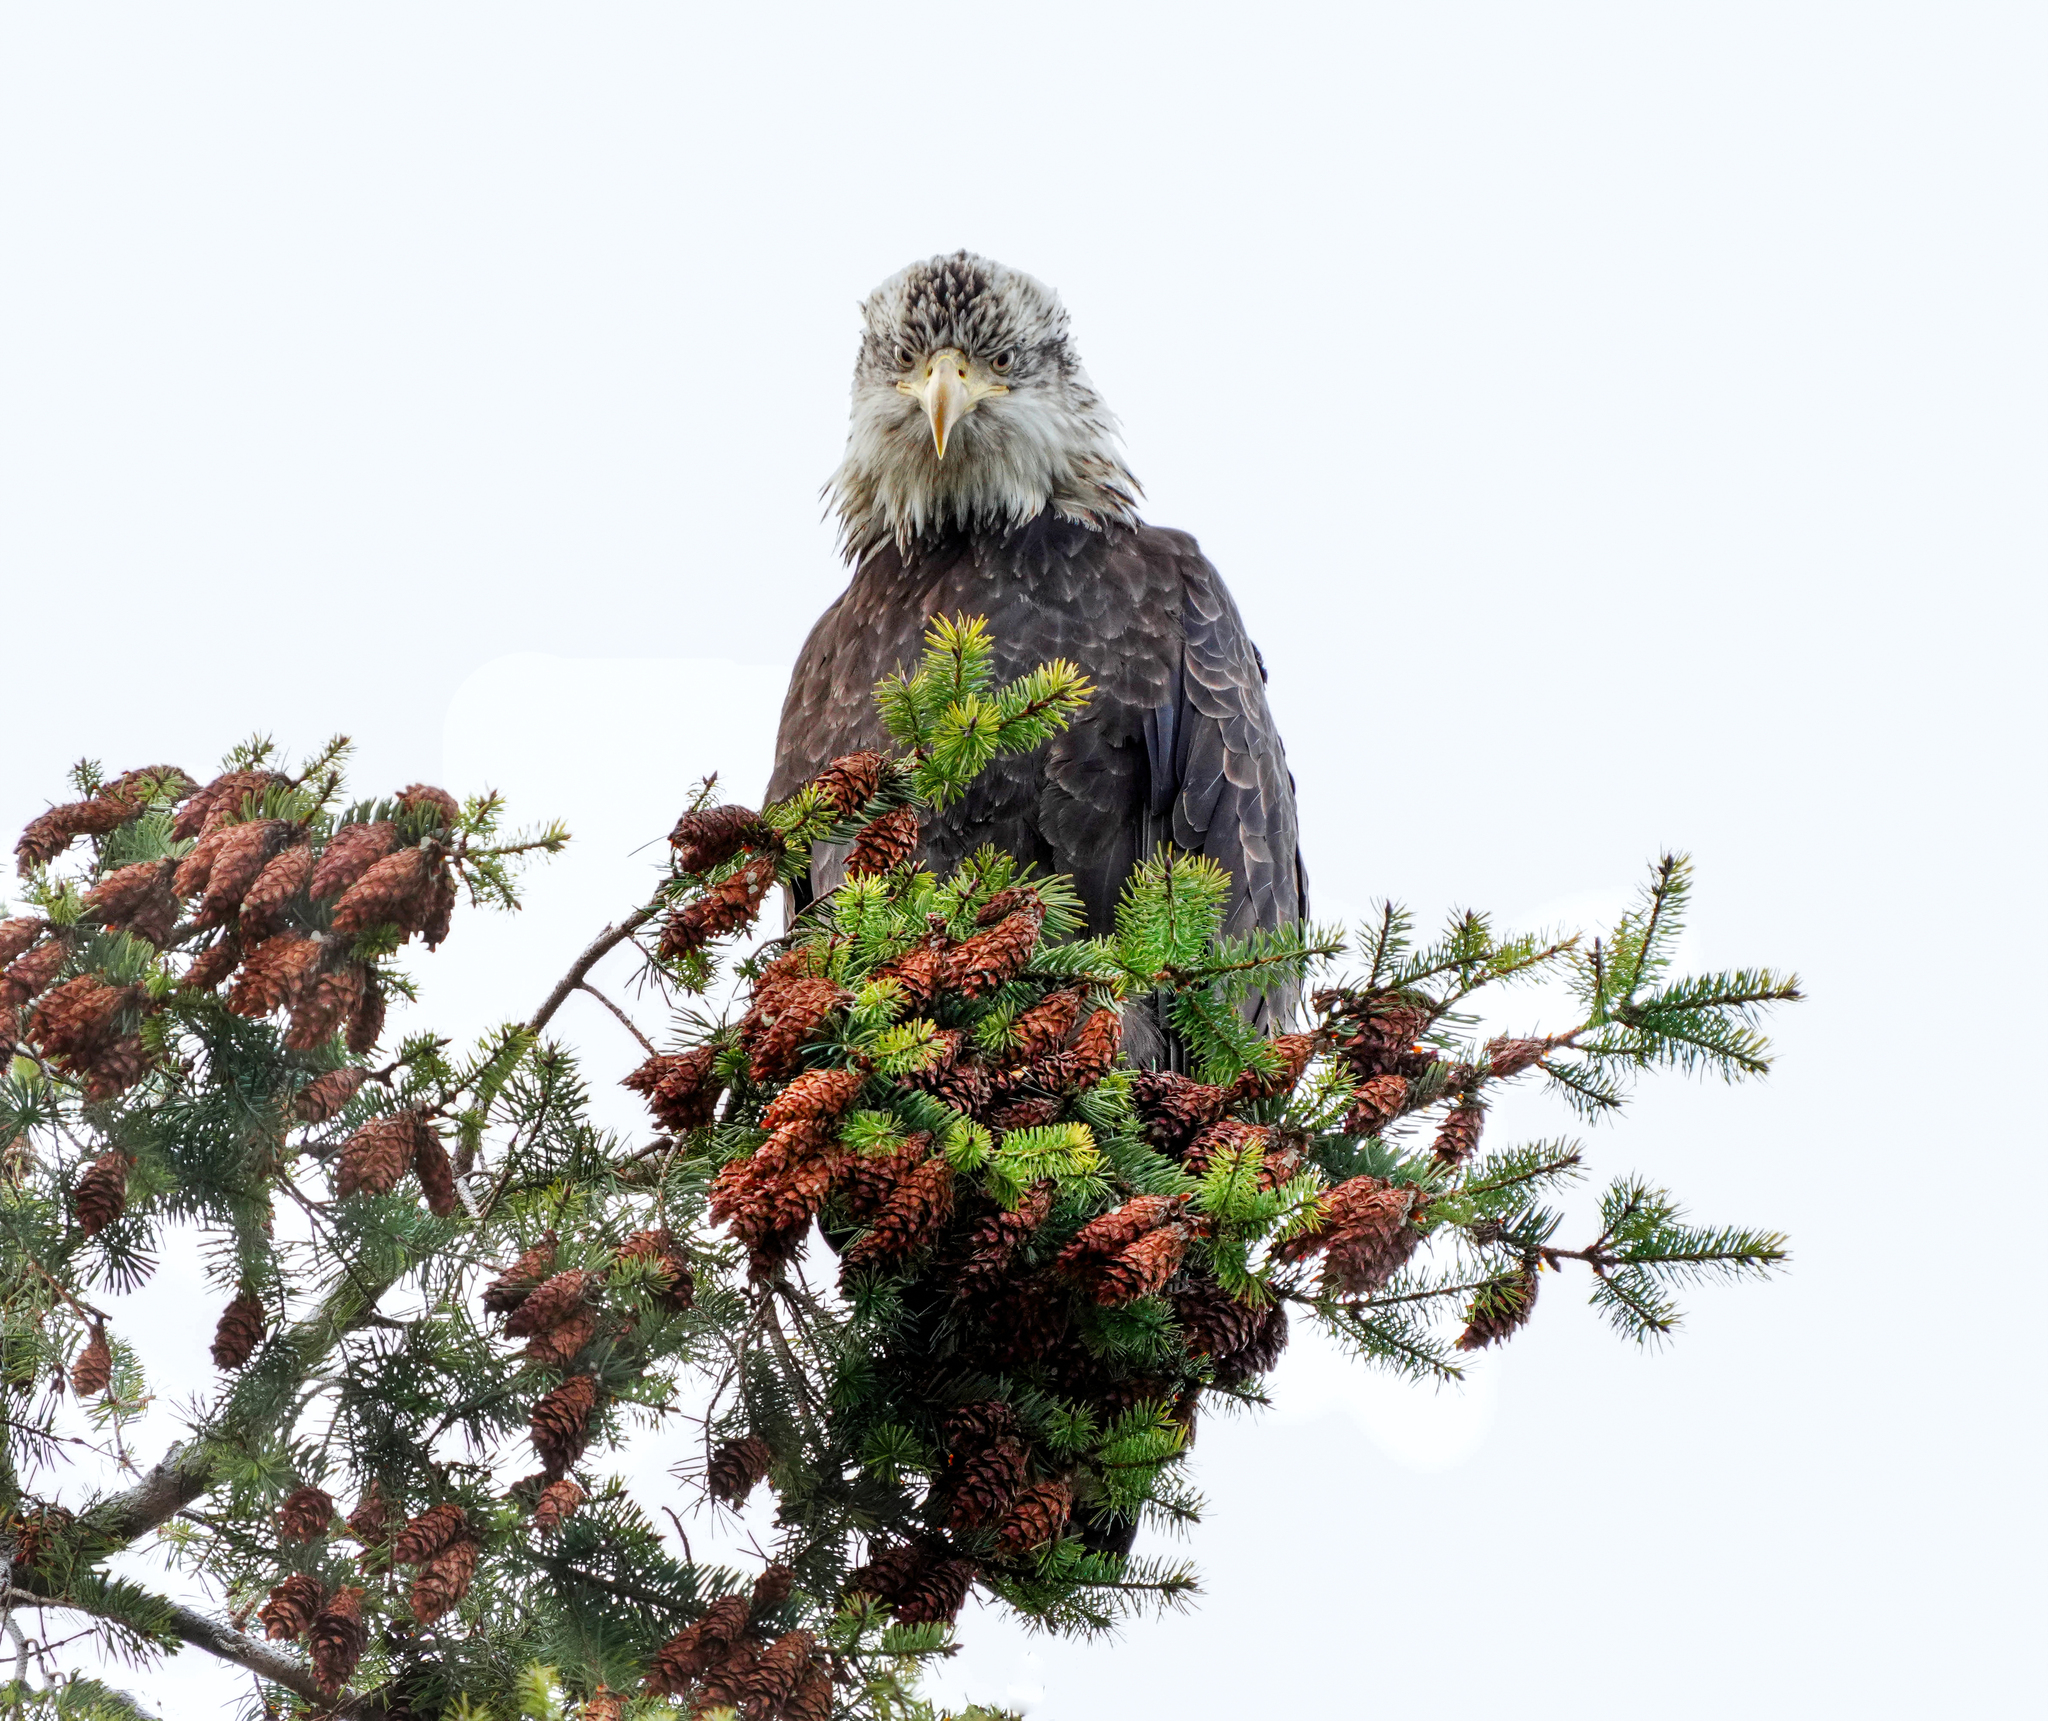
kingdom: Animalia
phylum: Chordata
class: Aves
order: Accipitriformes
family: Accipitridae
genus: Haliaeetus
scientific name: Haliaeetus leucocephalus
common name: Bald eagle
